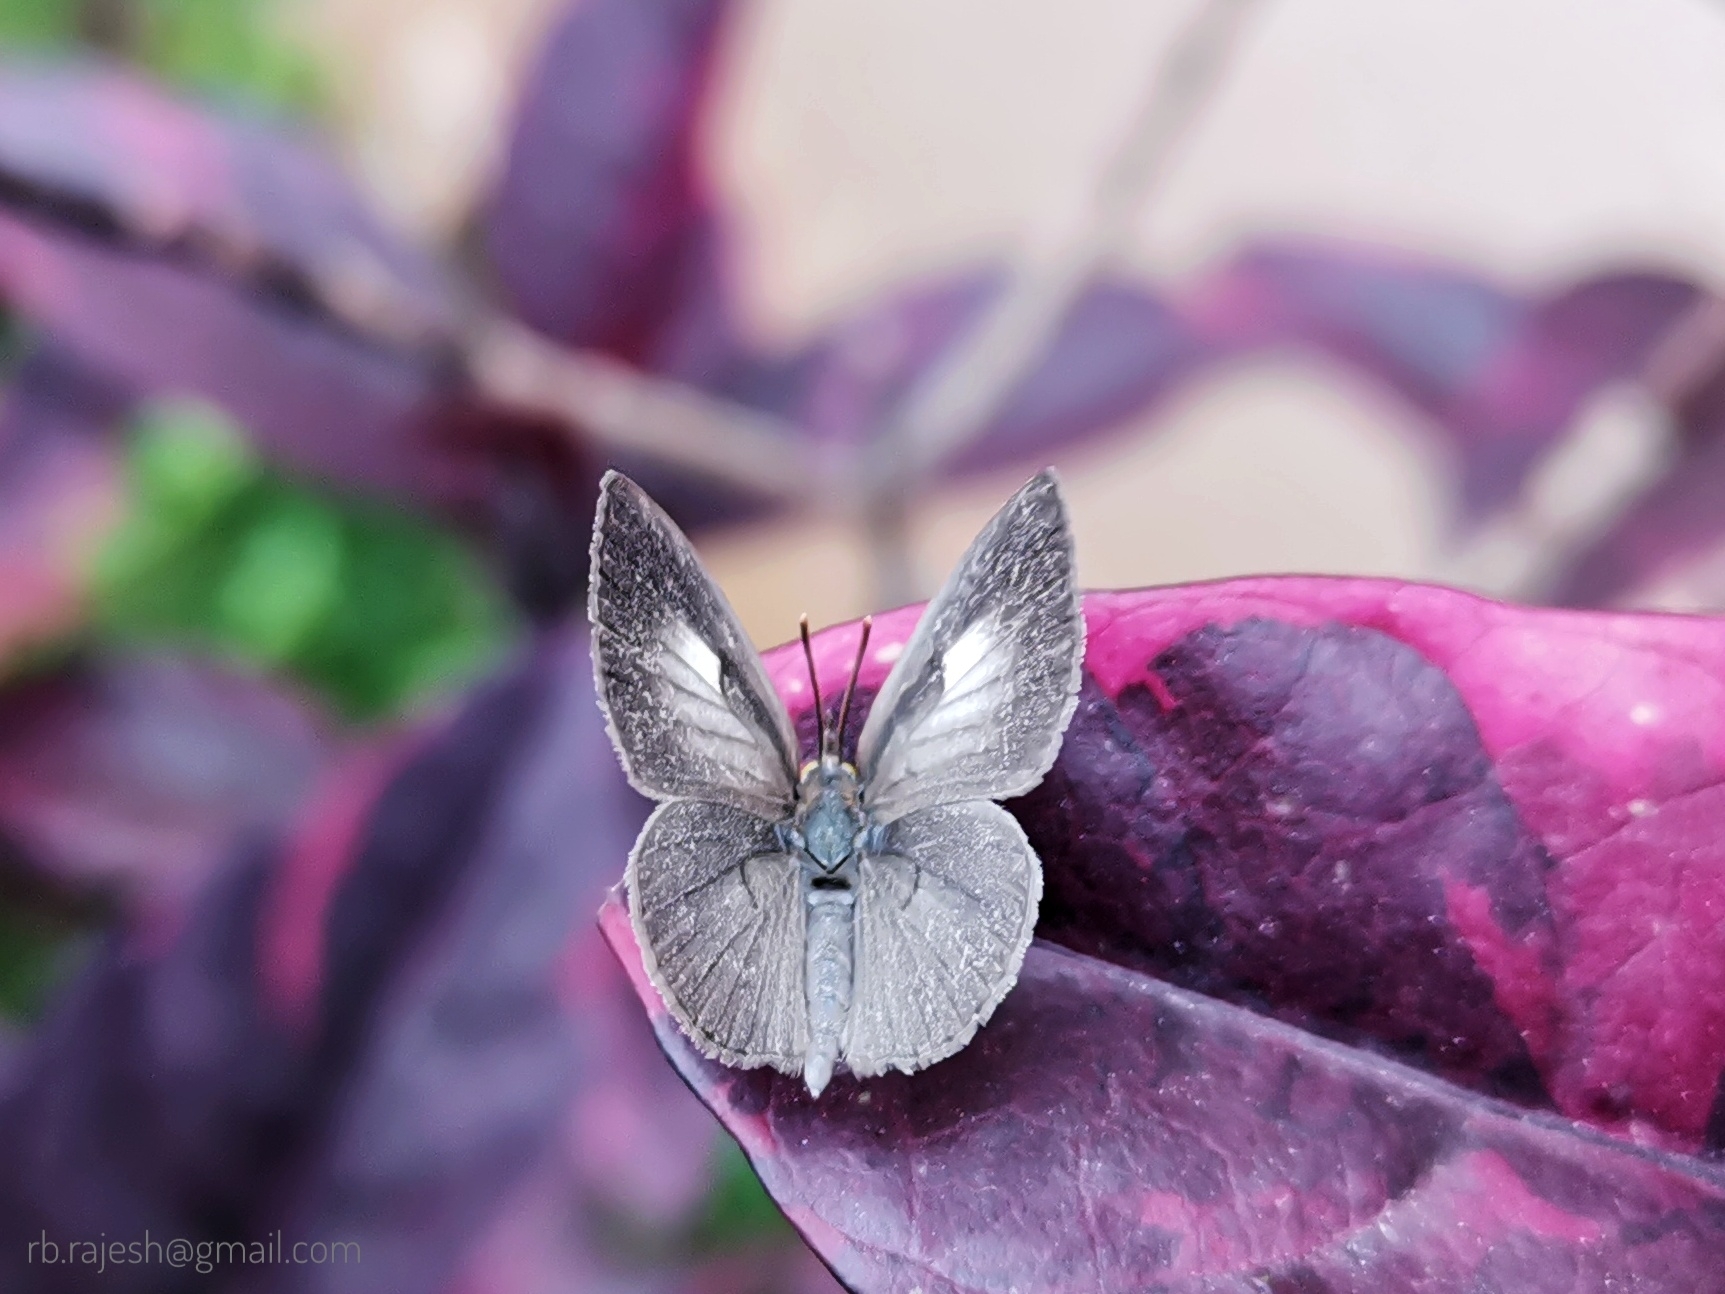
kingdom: Animalia
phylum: Arthropoda
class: Insecta
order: Lepidoptera
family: Lycaenidae
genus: Spalgis
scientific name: Spalgis epius
